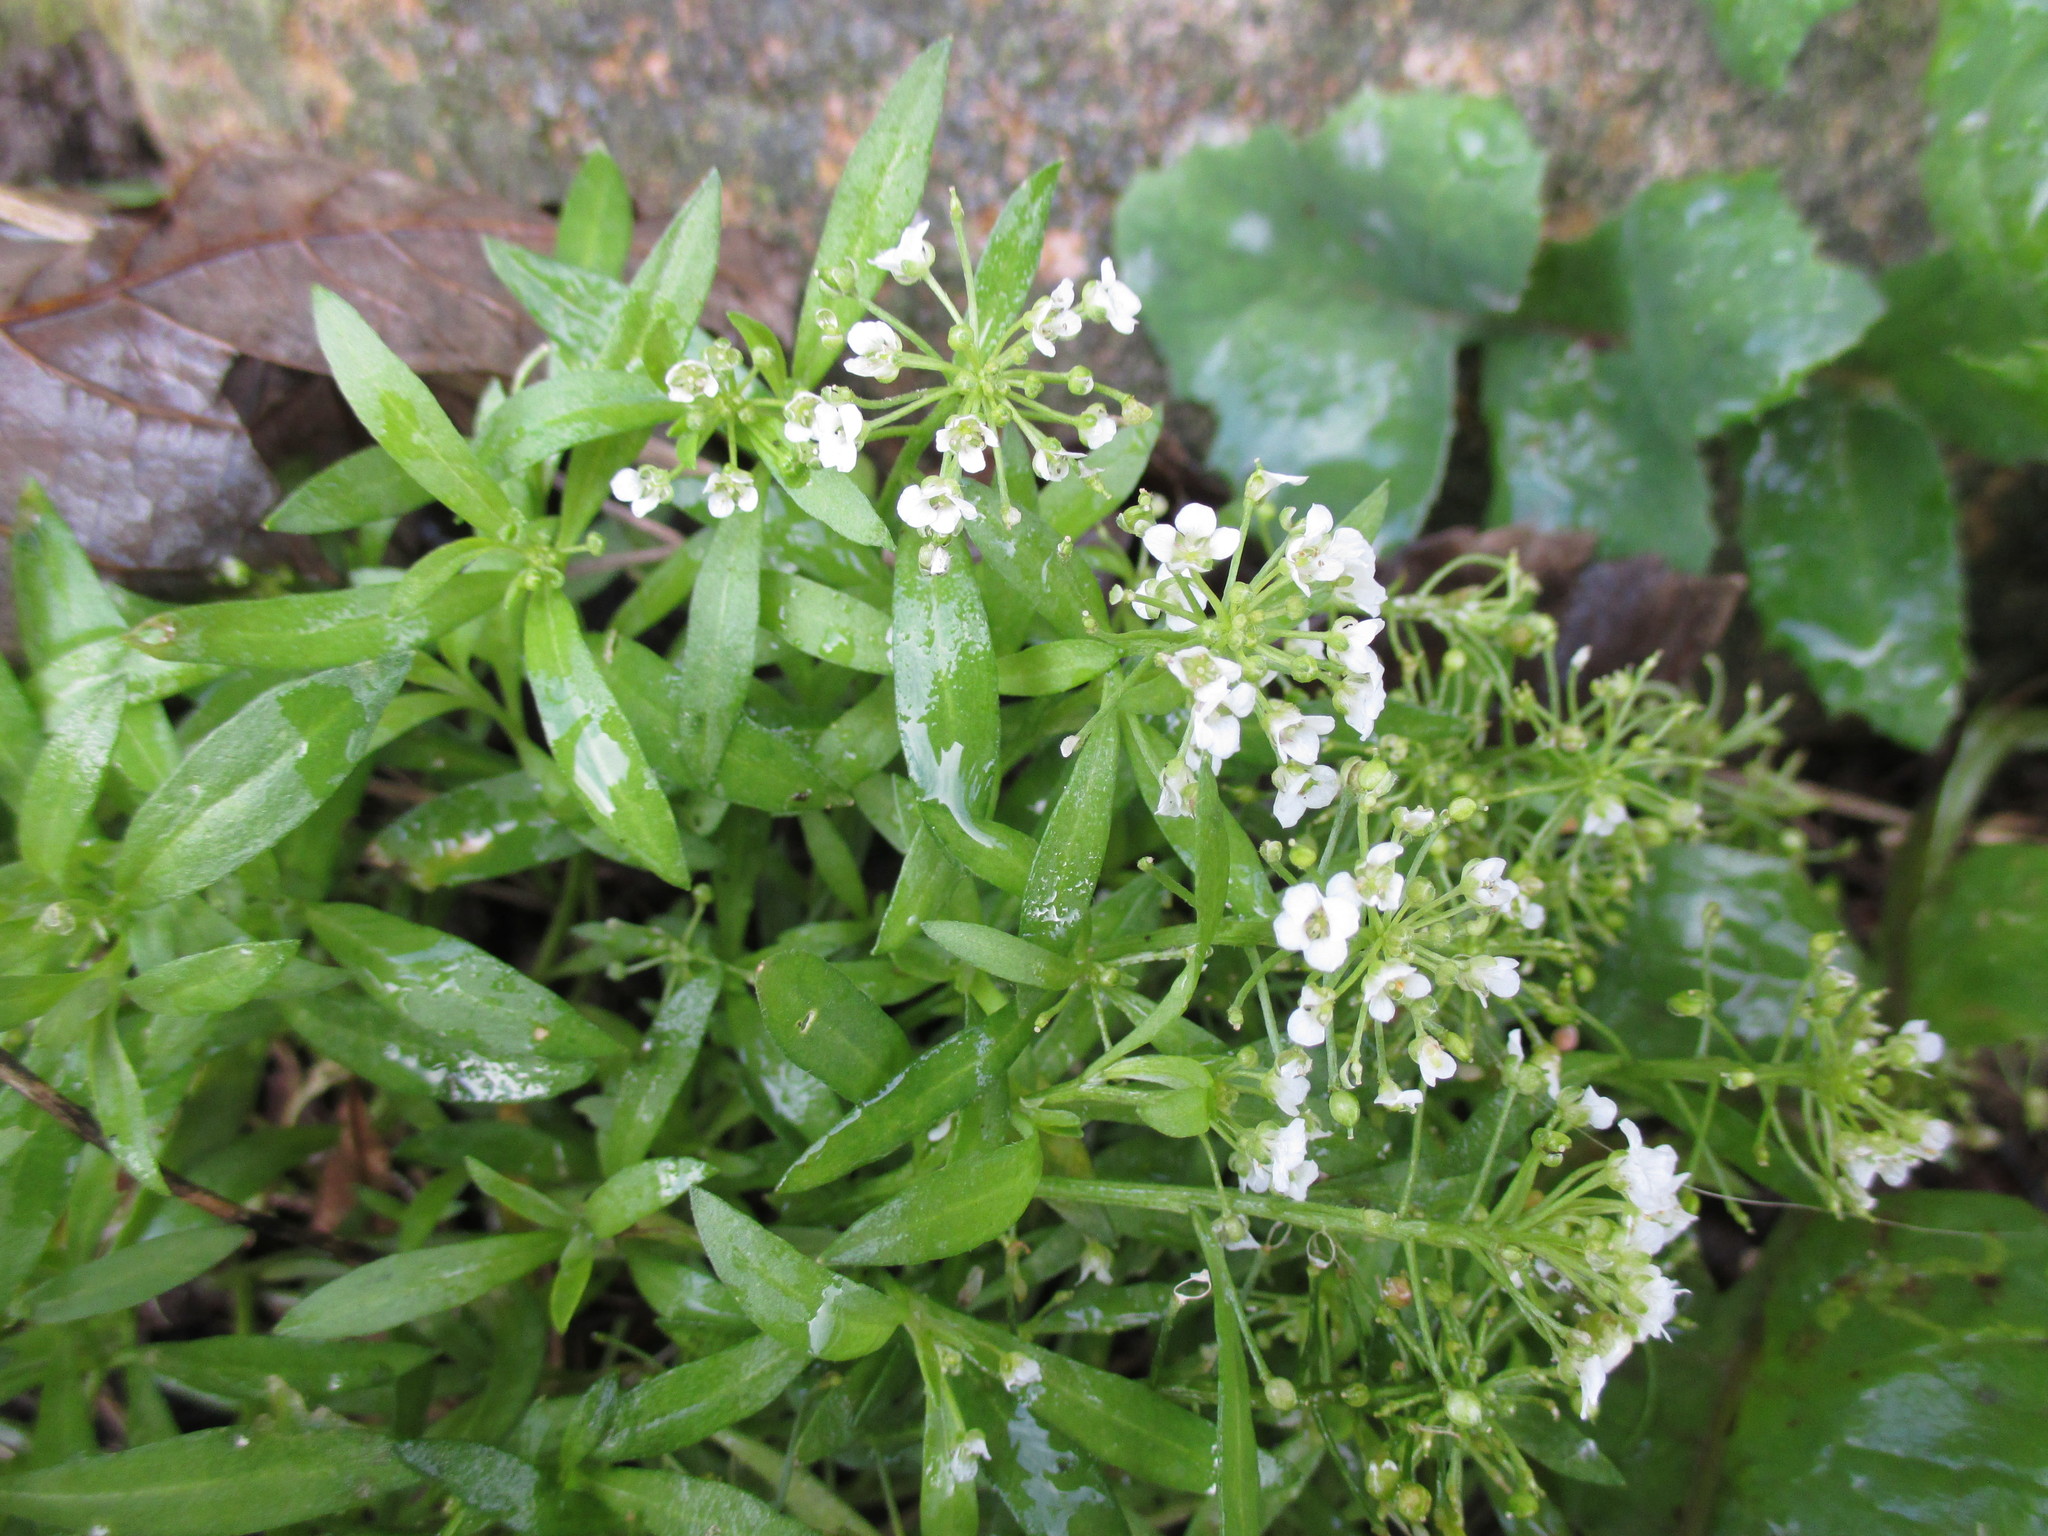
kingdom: Plantae
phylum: Tracheophyta
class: Magnoliopsida
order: Brassicales
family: Brassicaceae
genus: Lobularia
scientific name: Lobularia maritima
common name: Sweet alison
